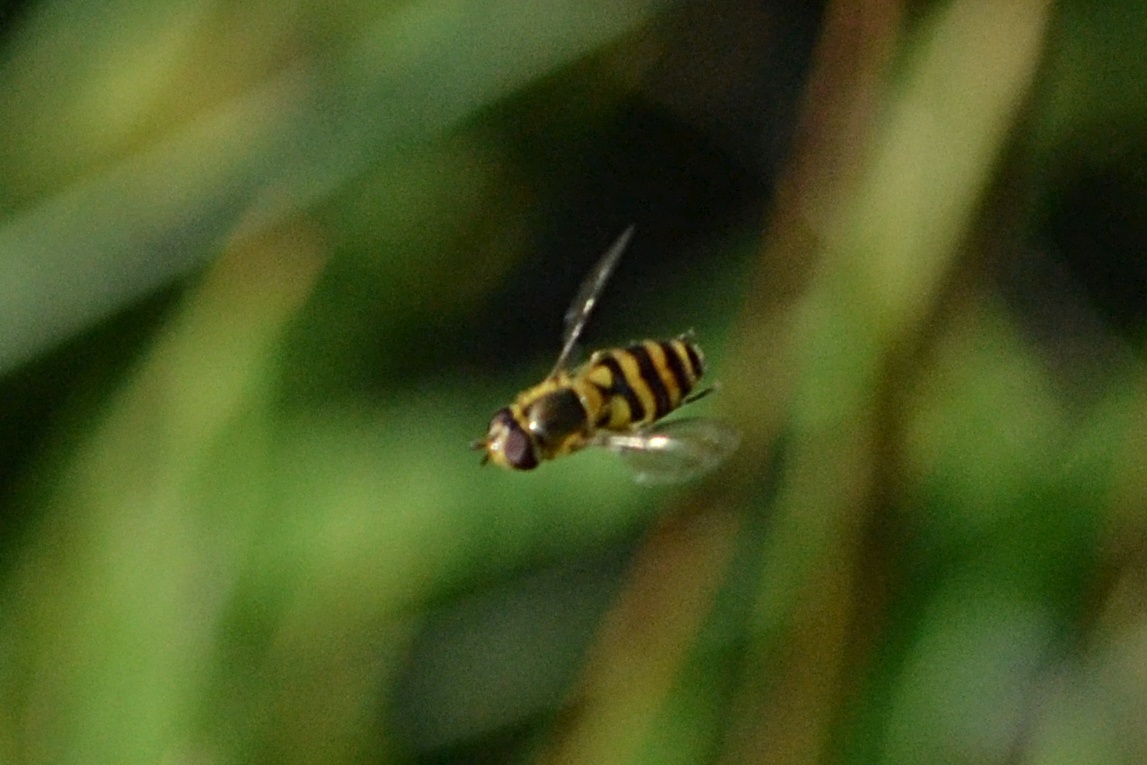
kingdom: Animalia
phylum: Arthropoda
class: Insecta
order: Diptera
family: Syrphidae
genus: Syrphus
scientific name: Syrphus
